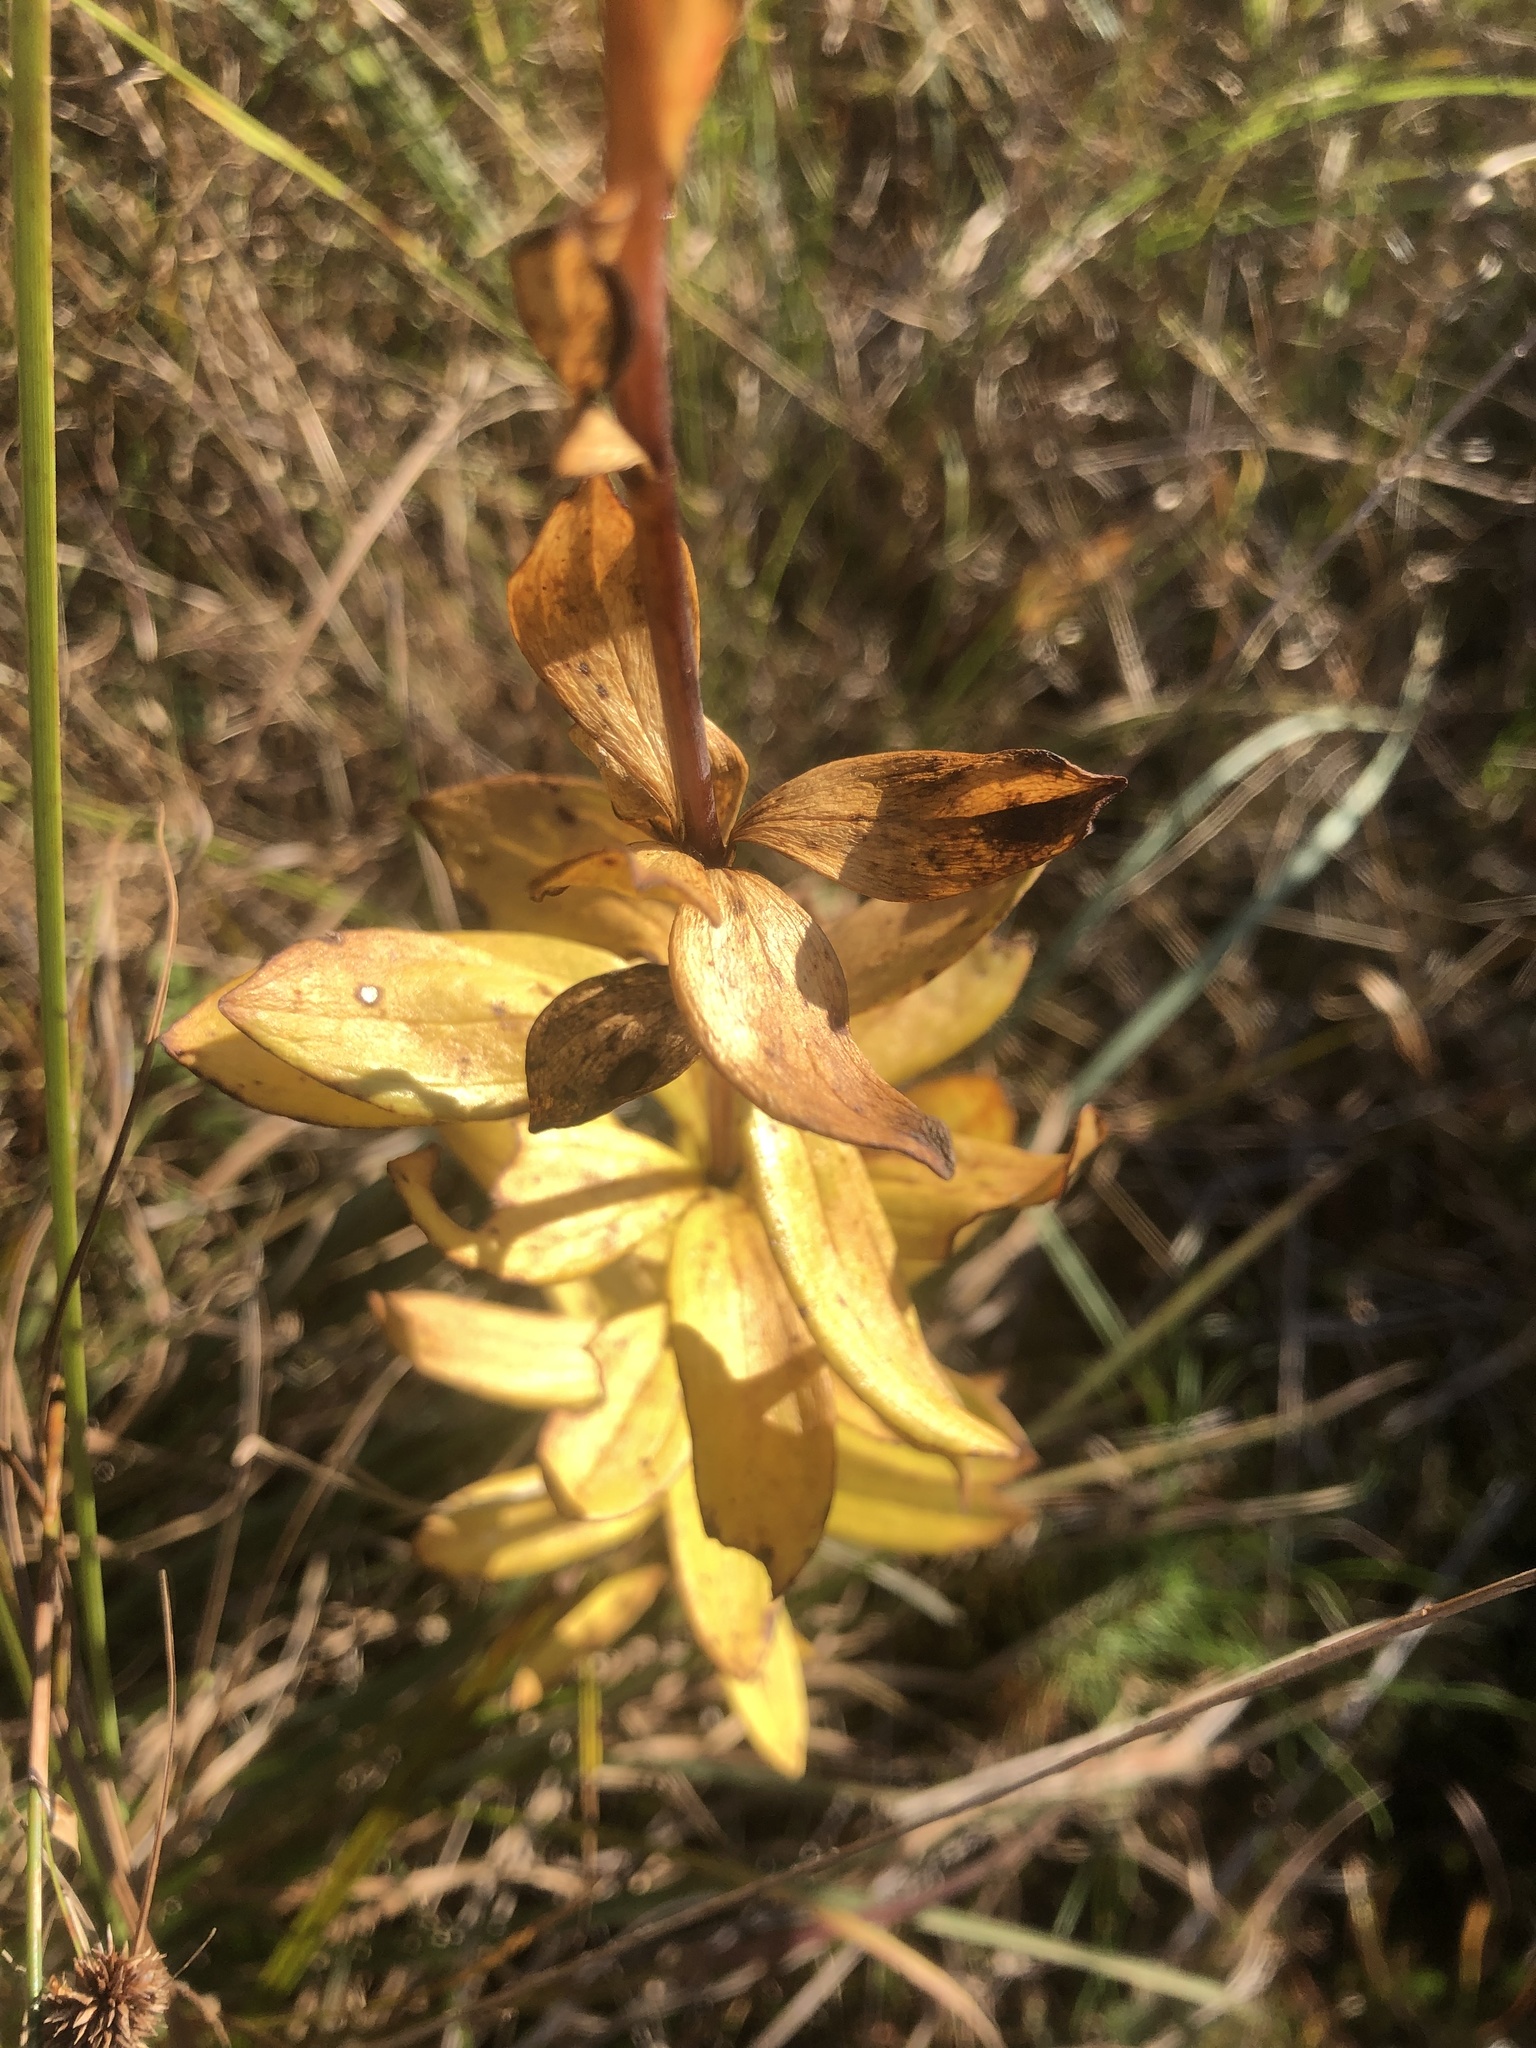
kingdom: Plantae
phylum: Tracheophyta
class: Liliopsida
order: Liliales
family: Liliaceae
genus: Lilium
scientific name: Lilium pyrophilum
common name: Sandhills lily
